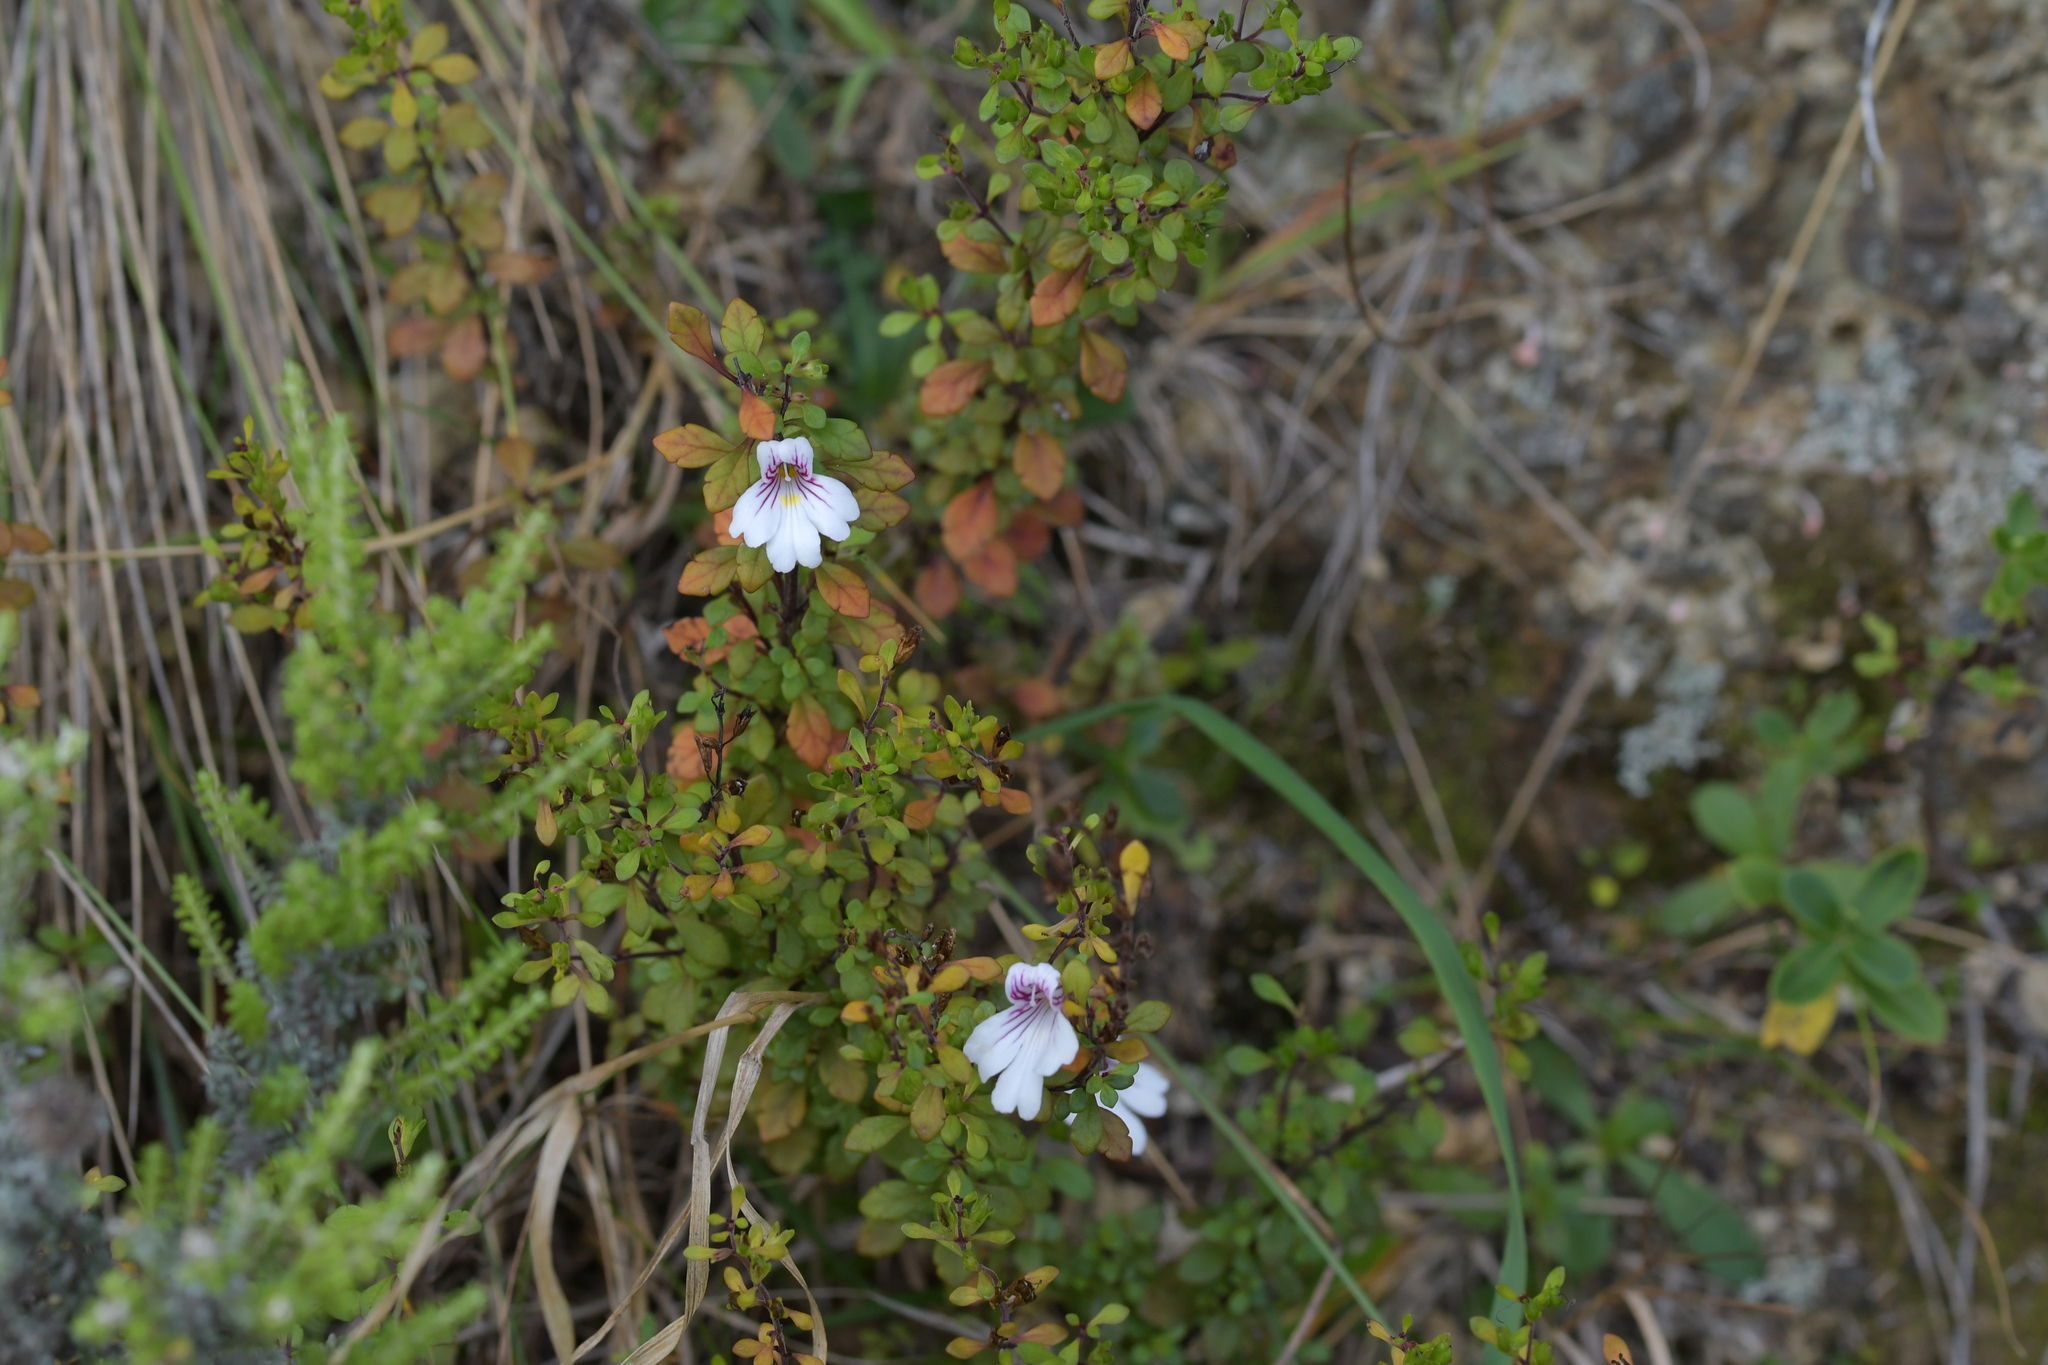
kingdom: Plantae
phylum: Tracheophyta
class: Magnoliopsida
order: Lamiales
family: Orobanchaceae
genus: Euphrasia
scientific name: Euphrasia cuneata
